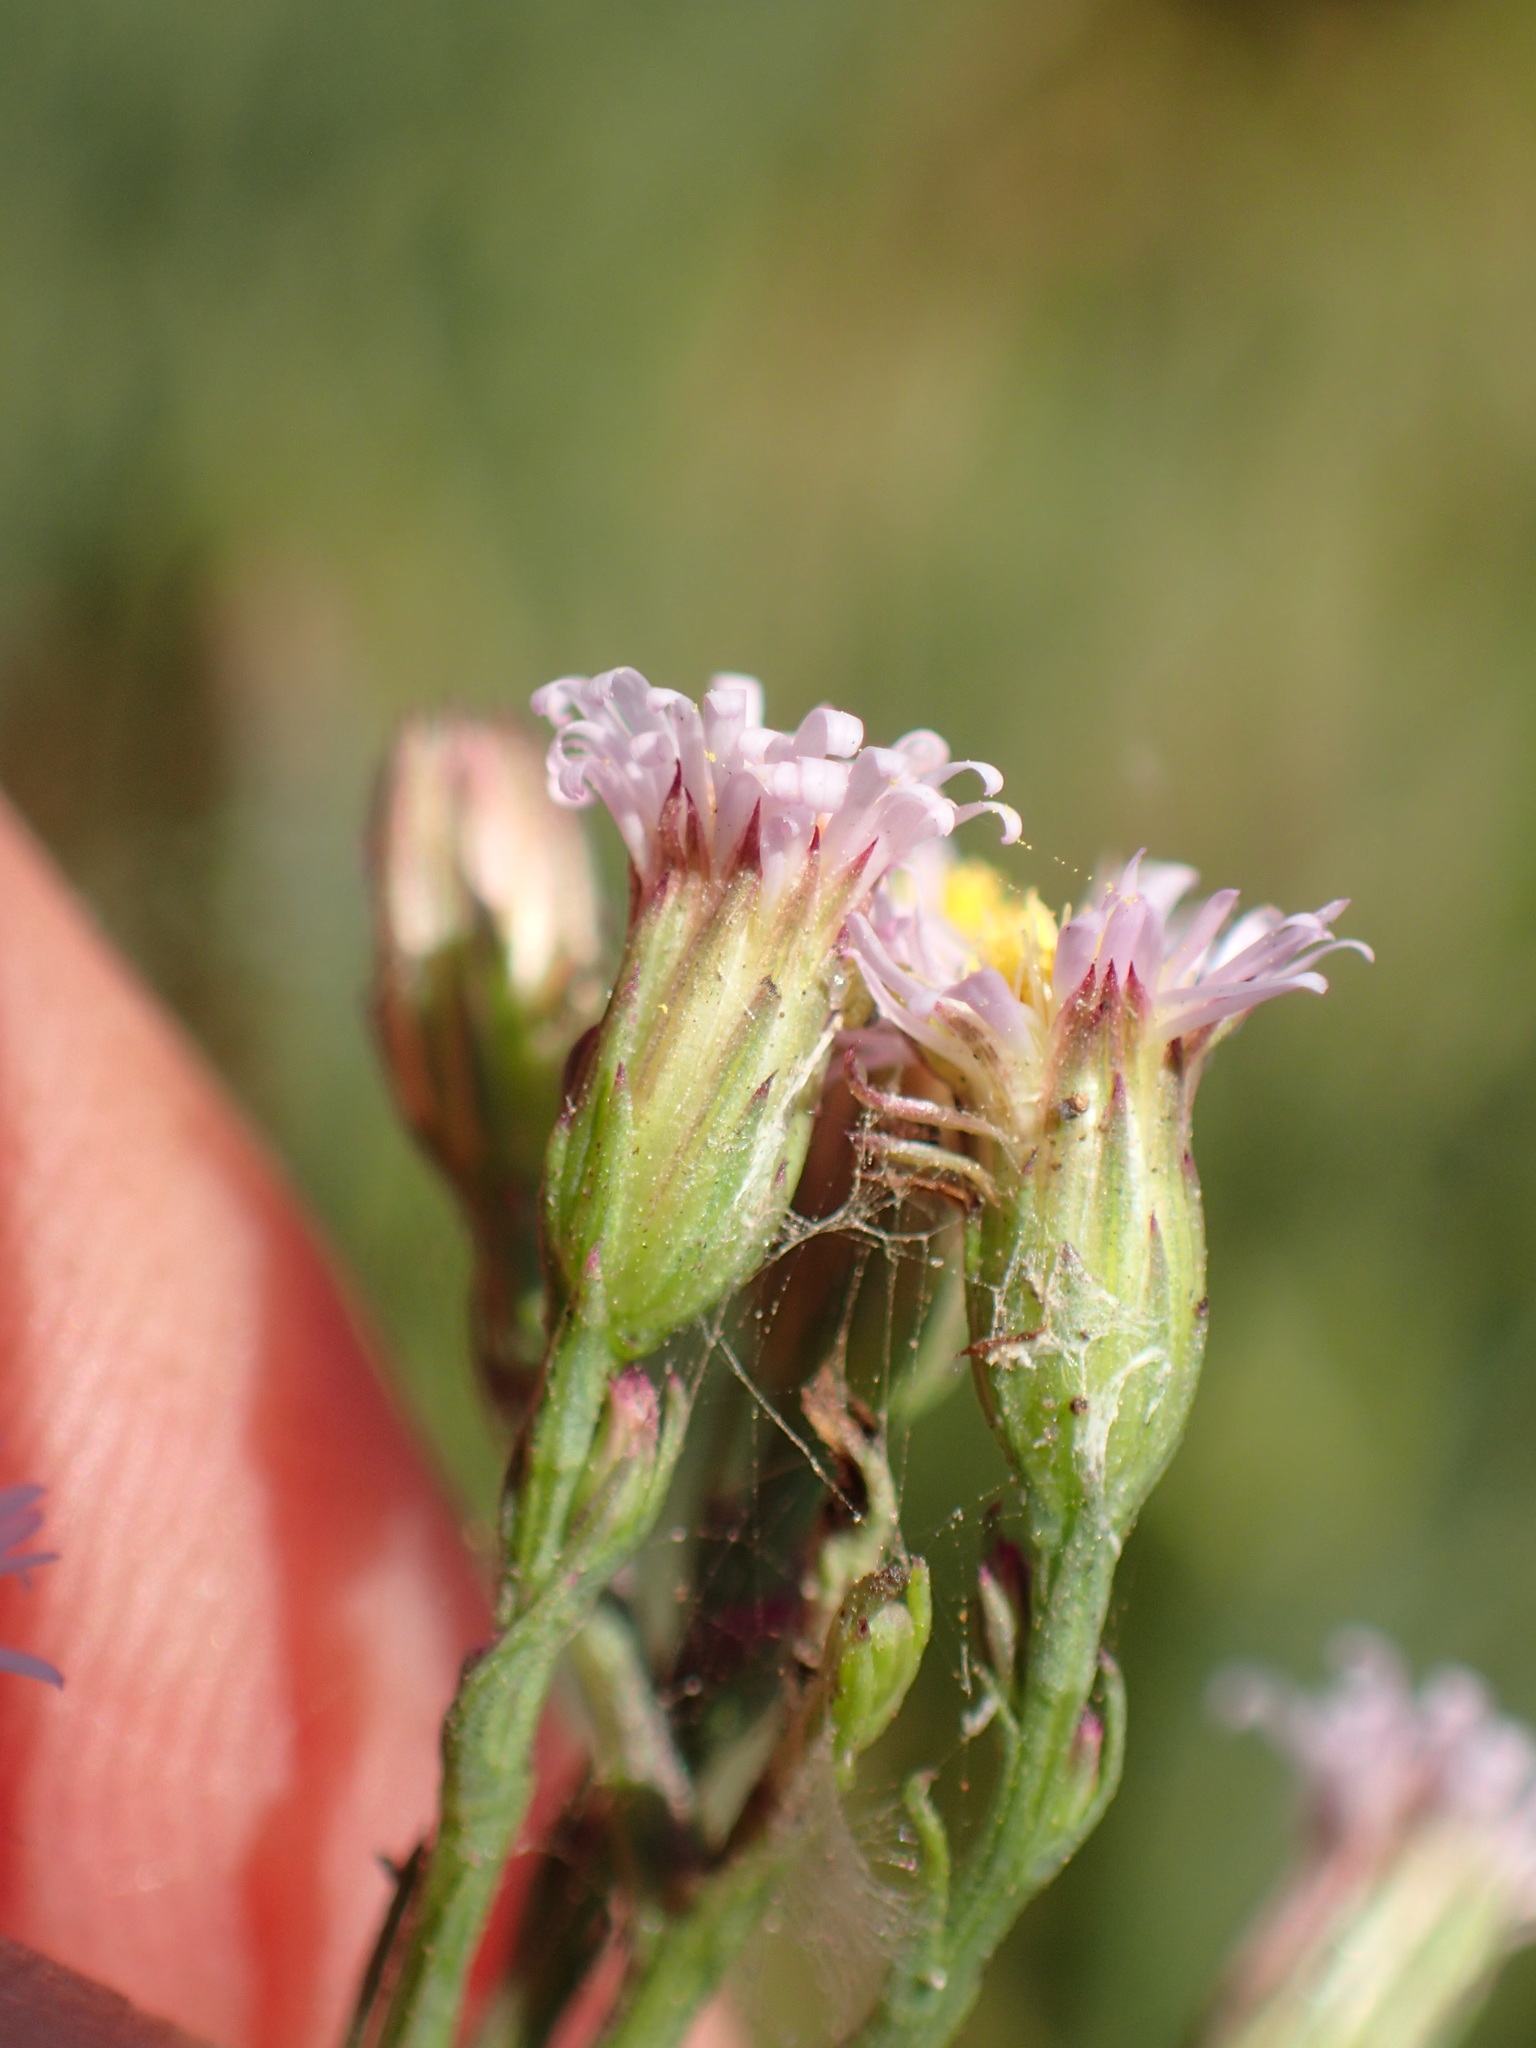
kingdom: Plantae
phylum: Tracheophyta
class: Magnoliopsida
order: Asterales
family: Asteraceae
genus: Symphyotrichum
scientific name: Symphyotrichum subulatum
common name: Annual saltmarsh aster
